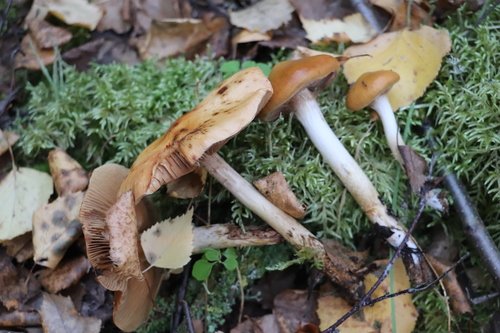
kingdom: Fungi
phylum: Basidiomycota
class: Agaricomycetes
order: Agaricales
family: Cortinariaceae
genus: Cortinarius
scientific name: Cortinarius trivialis
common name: Girdled webcap
